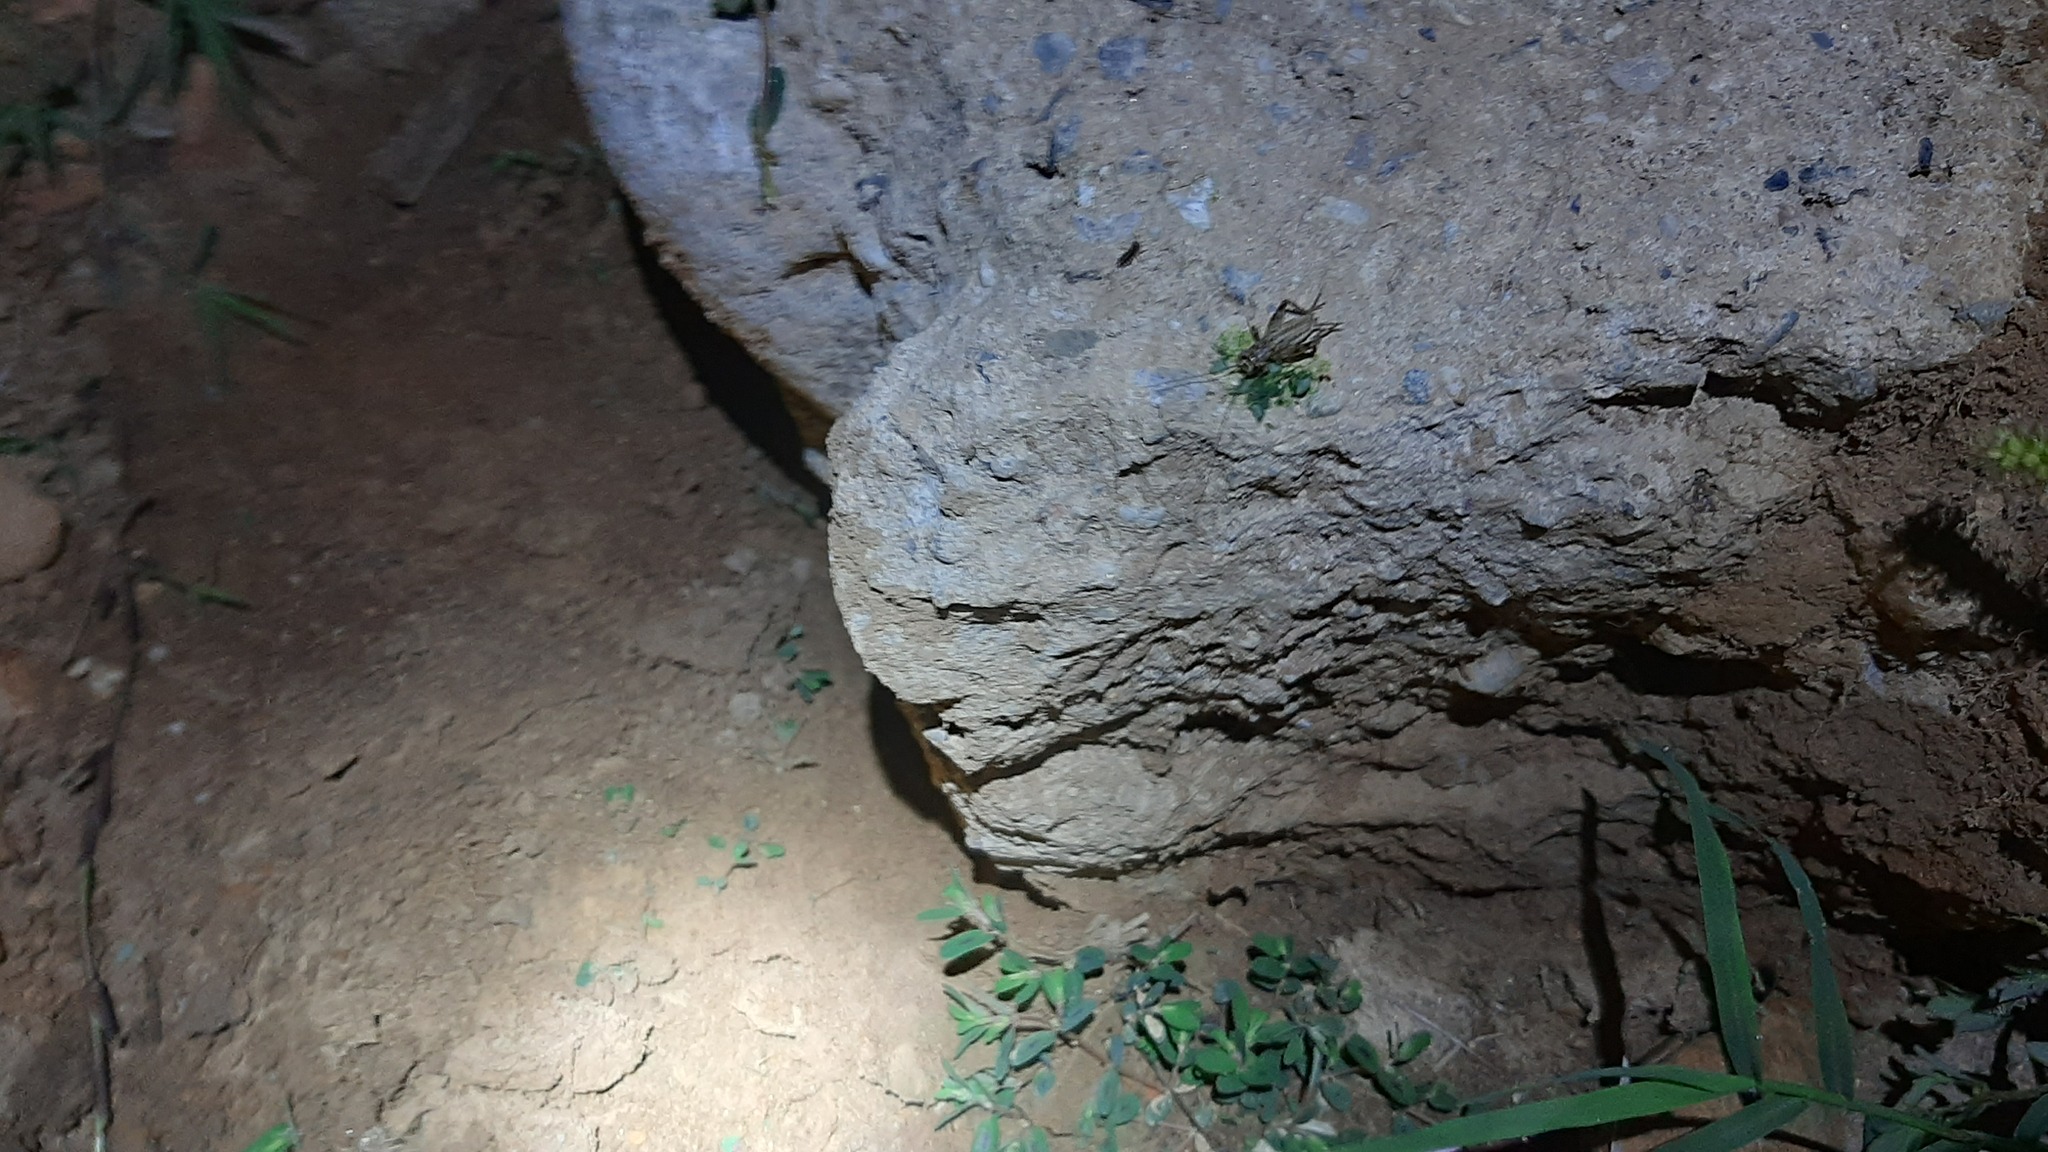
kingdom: Animalia
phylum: Arthropoda
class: Insecta
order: Orthoptera
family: Gryllidae
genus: Eumodicogryllus
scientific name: Eumodicogryllus bordigalensis
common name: Bordeaux cricket
